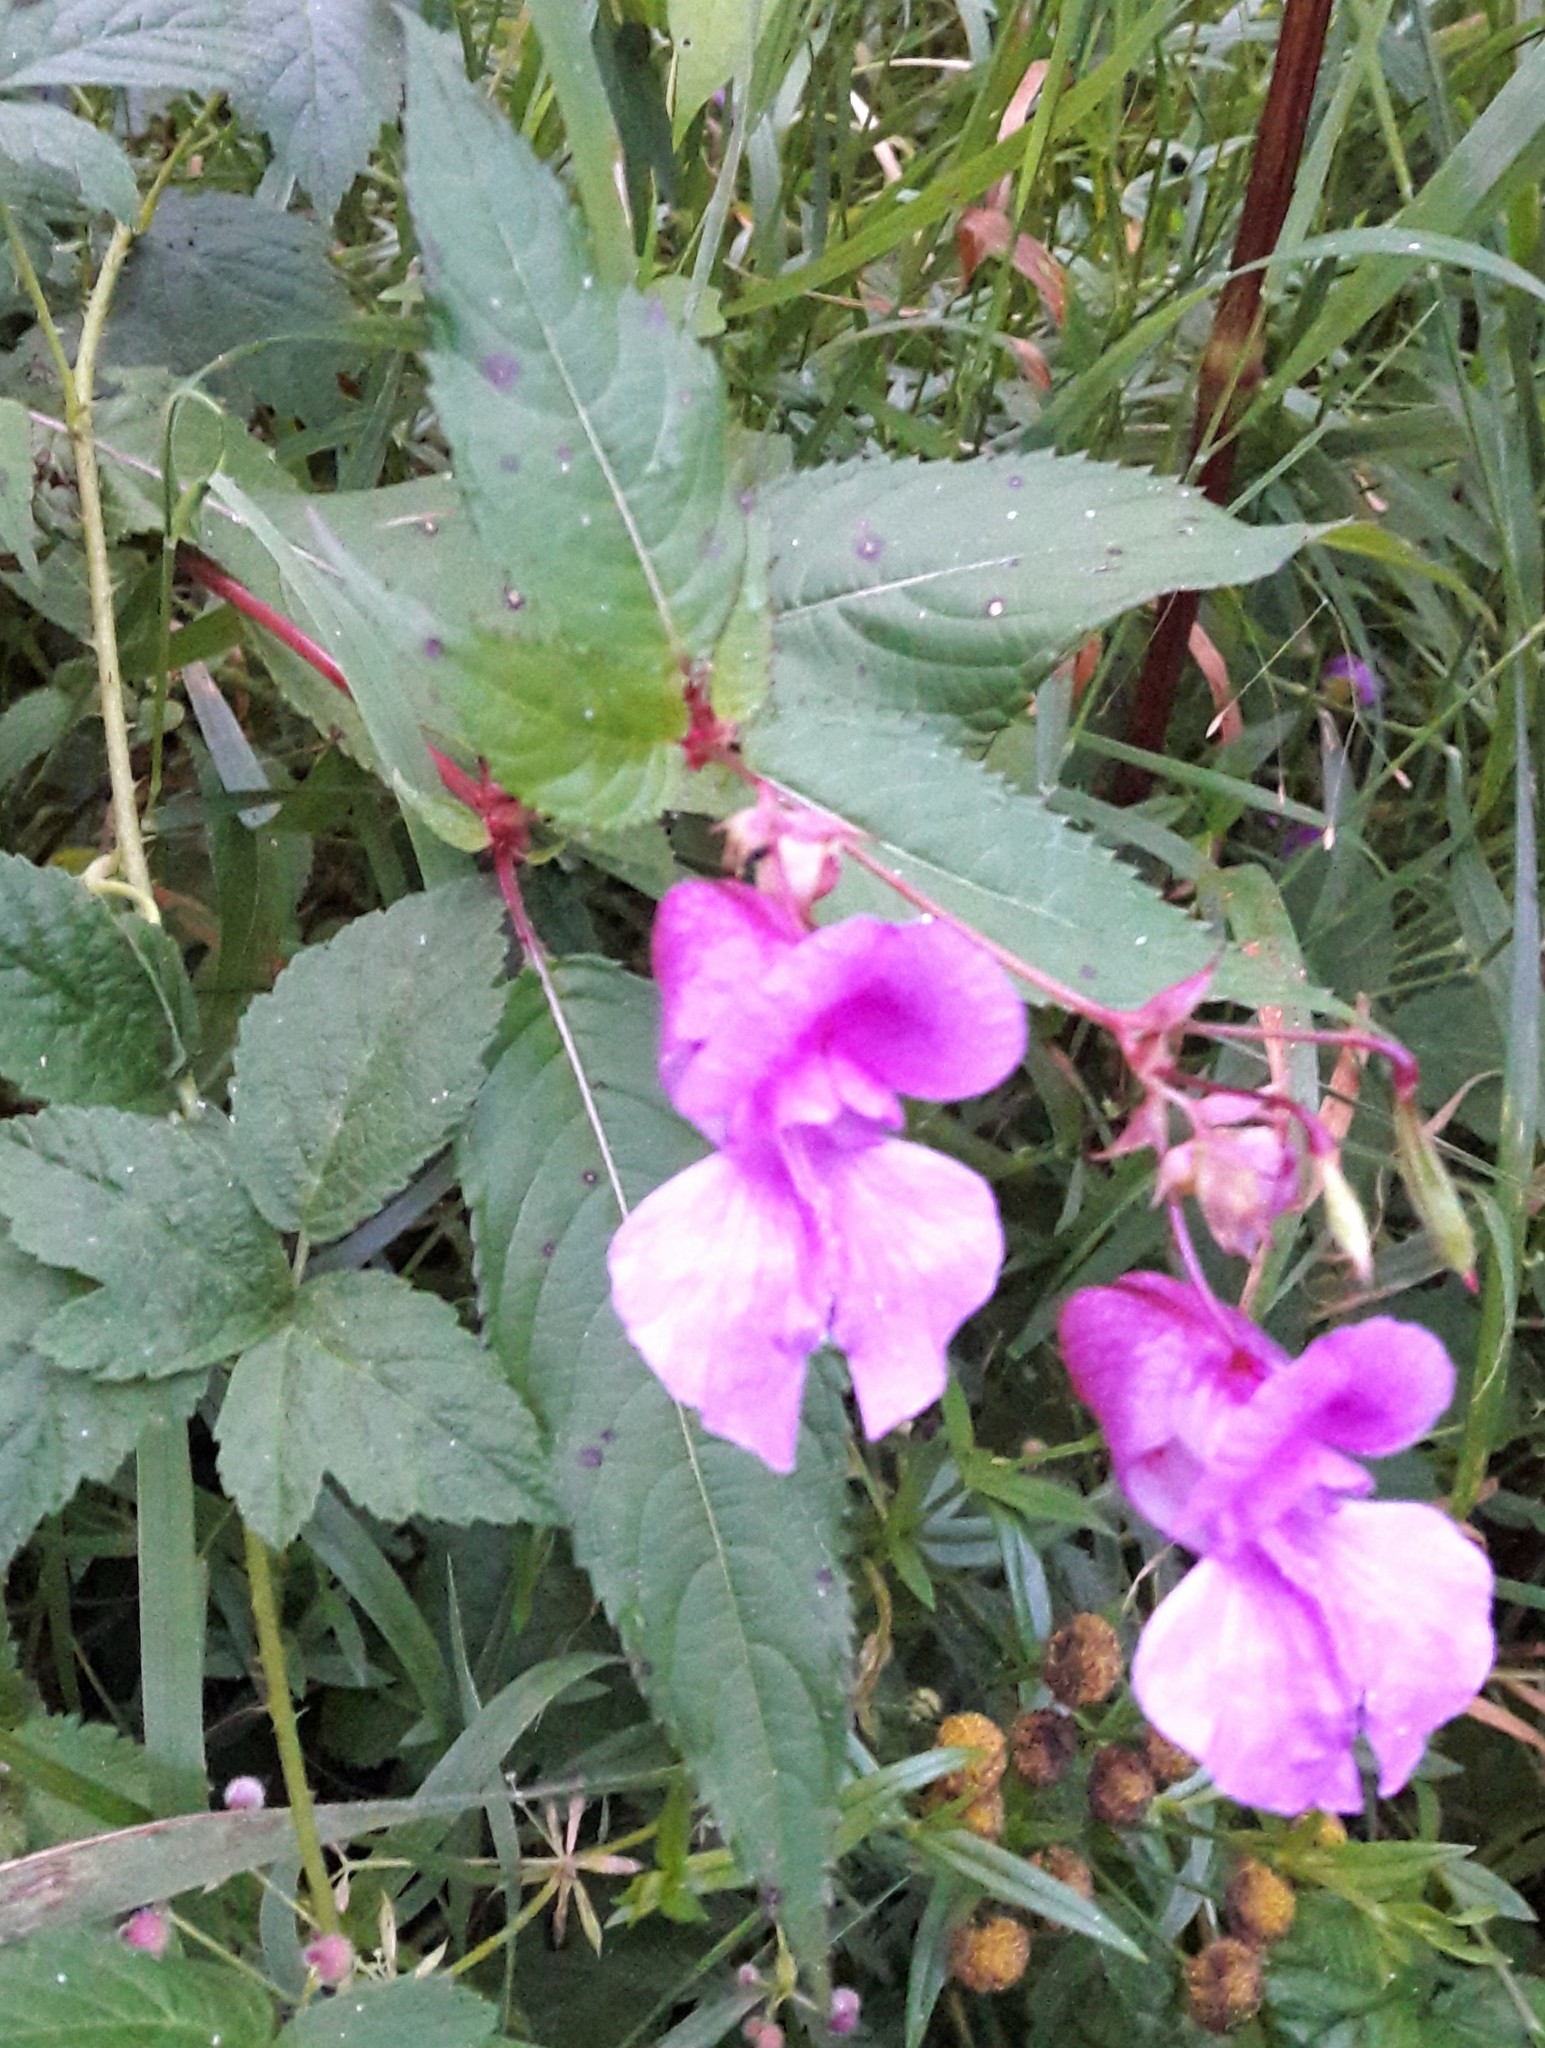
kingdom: Plantae
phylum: Tracheophyta
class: Magnoliopsida
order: Ericales
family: Balsaminaceae
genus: Impatiens
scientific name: Impatiens glandulifera
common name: Himalayan balsam
